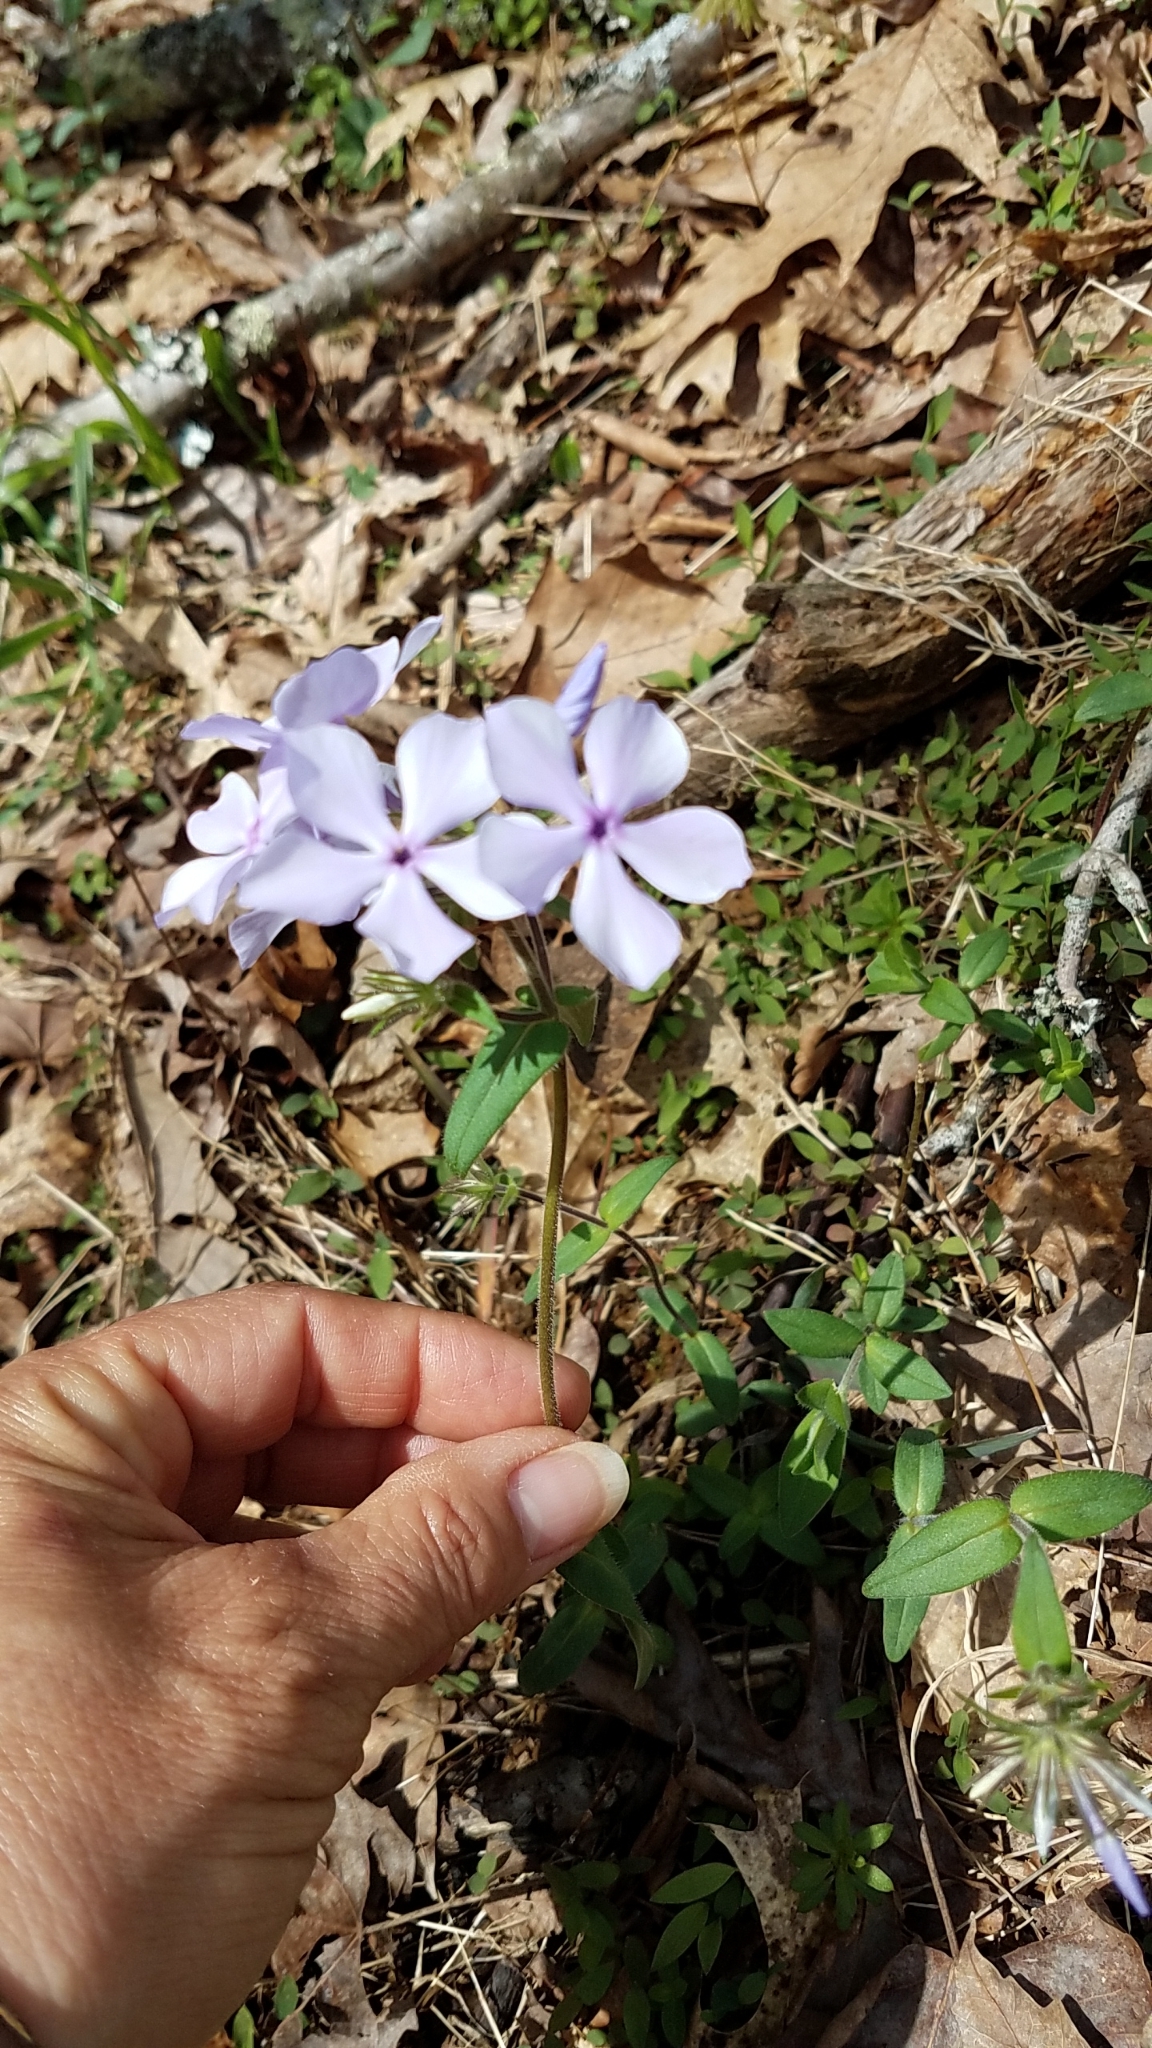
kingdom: Plantae
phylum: Tracheophyta
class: Magnoliopsida
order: Ericales
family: Polemoniaceae
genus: Phlox
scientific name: Phlox divaricata
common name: Blue phlox
